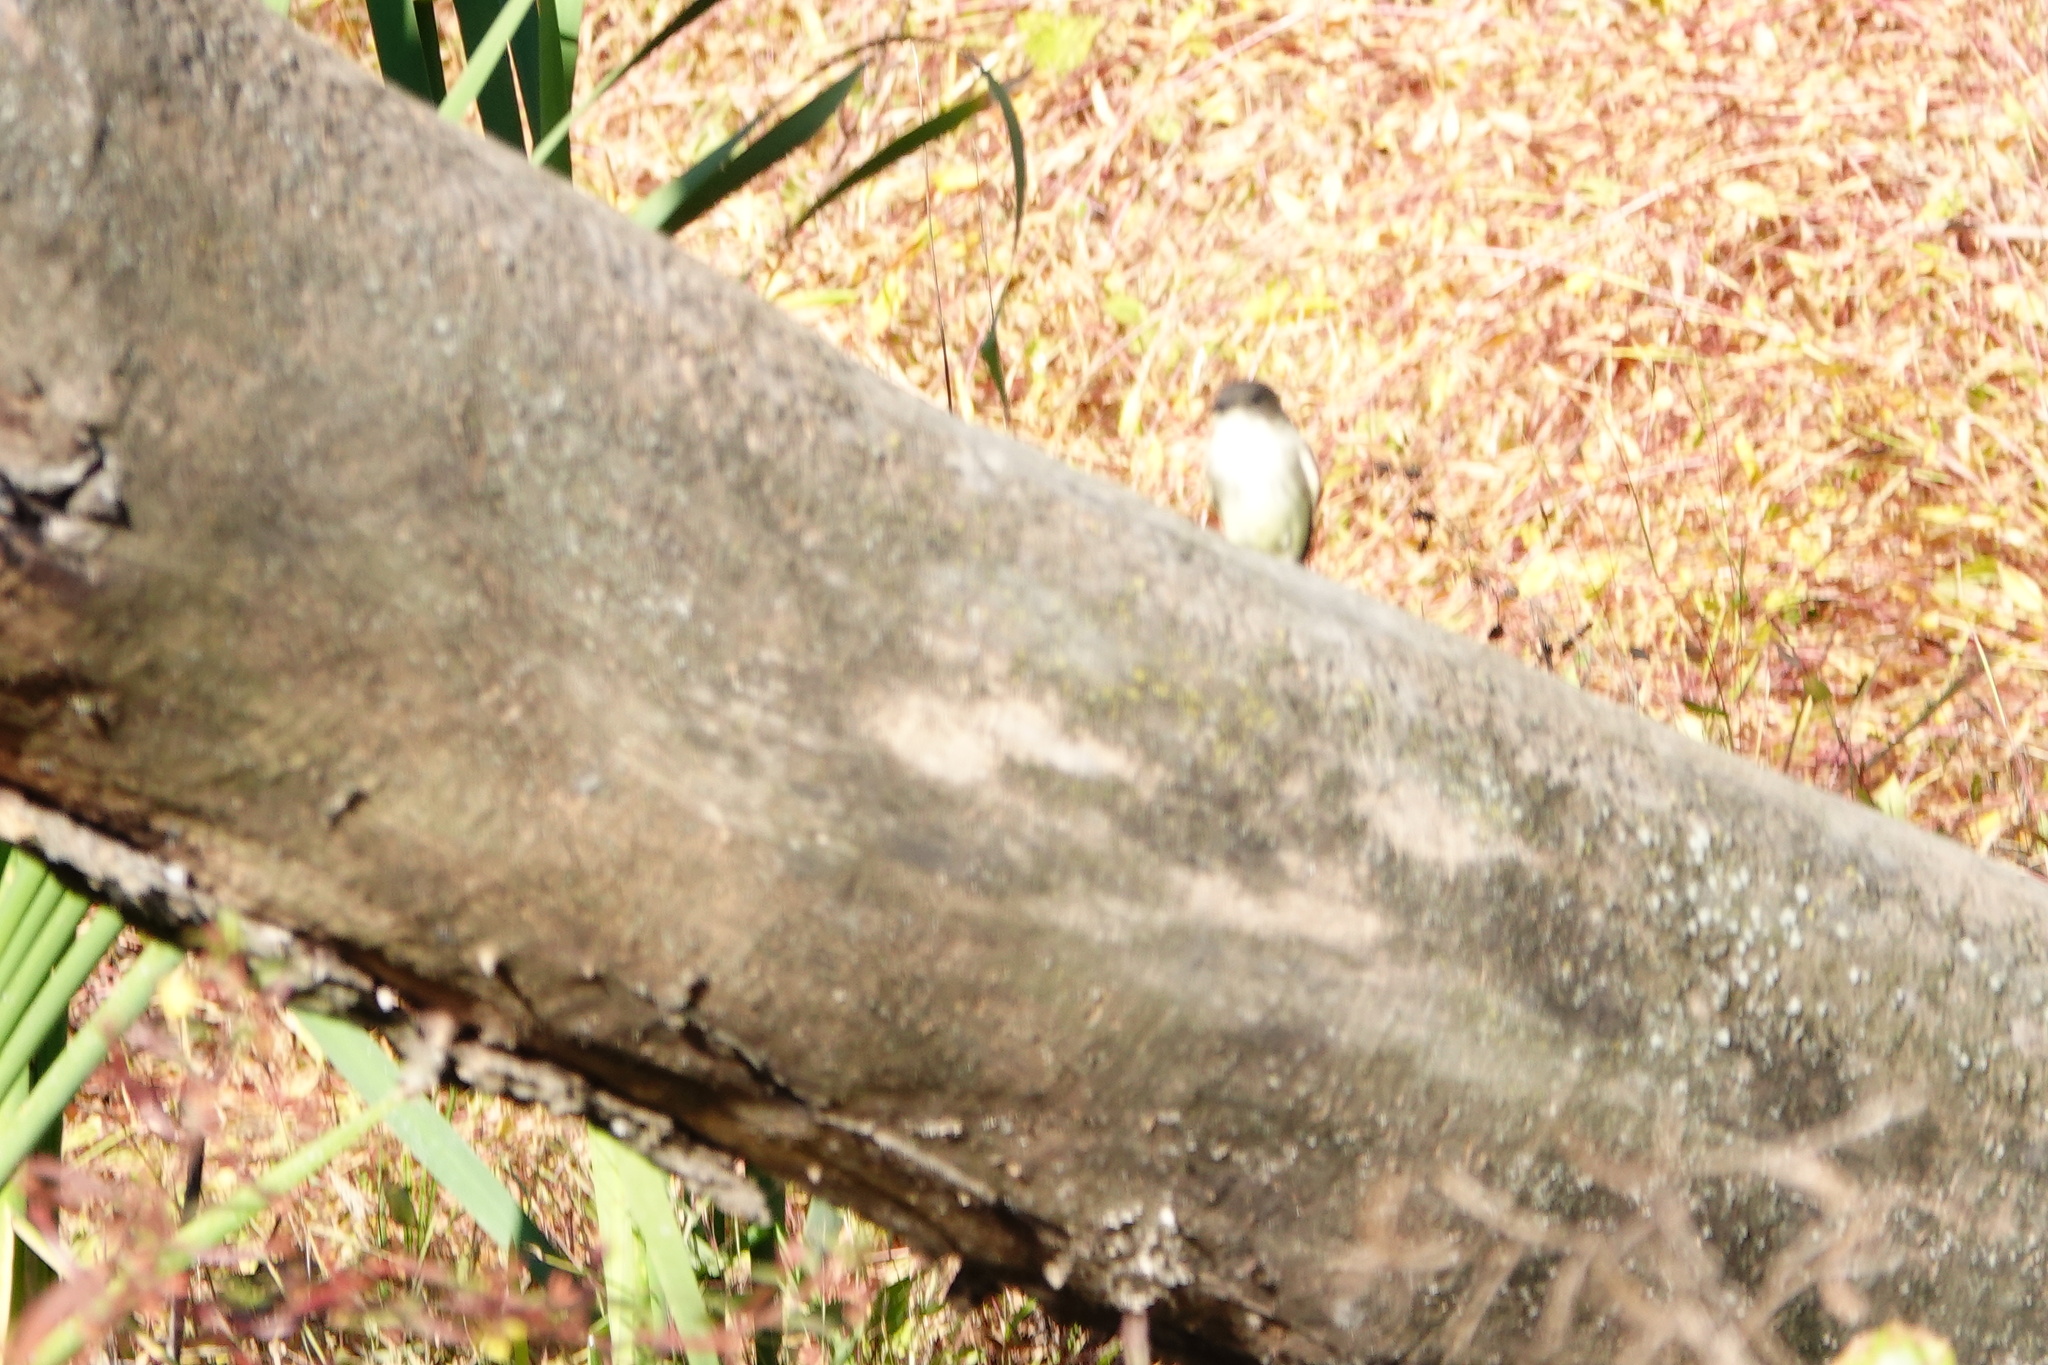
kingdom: Animalia
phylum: Chordata
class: Aves
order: Passeriformes
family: Tyrannidae
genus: Sayornis
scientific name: Sayornis phoebe
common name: Eastern phoebe
